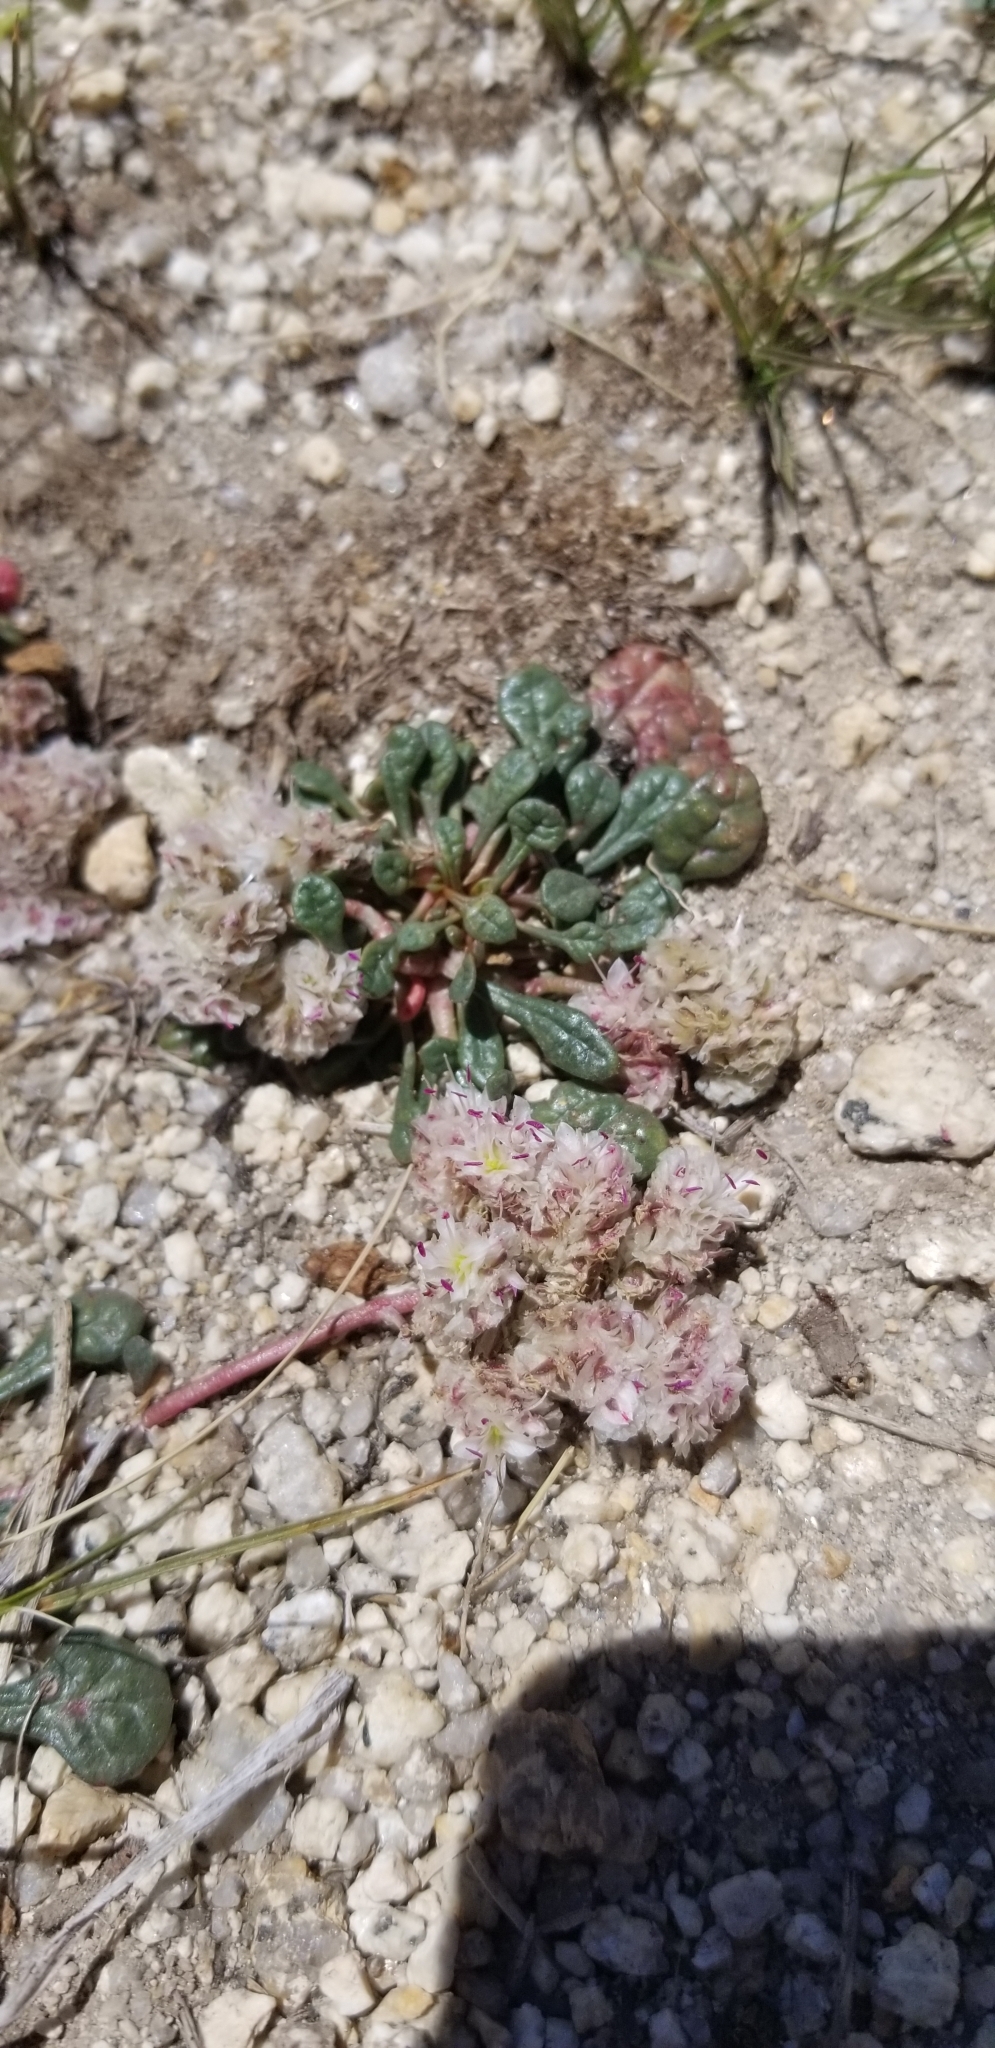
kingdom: Plantae
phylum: Tracheophyta
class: Magnoliopsida
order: Caryophyllales
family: Montiaceae
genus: Calyptridium
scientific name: Calyptridium monospermum
